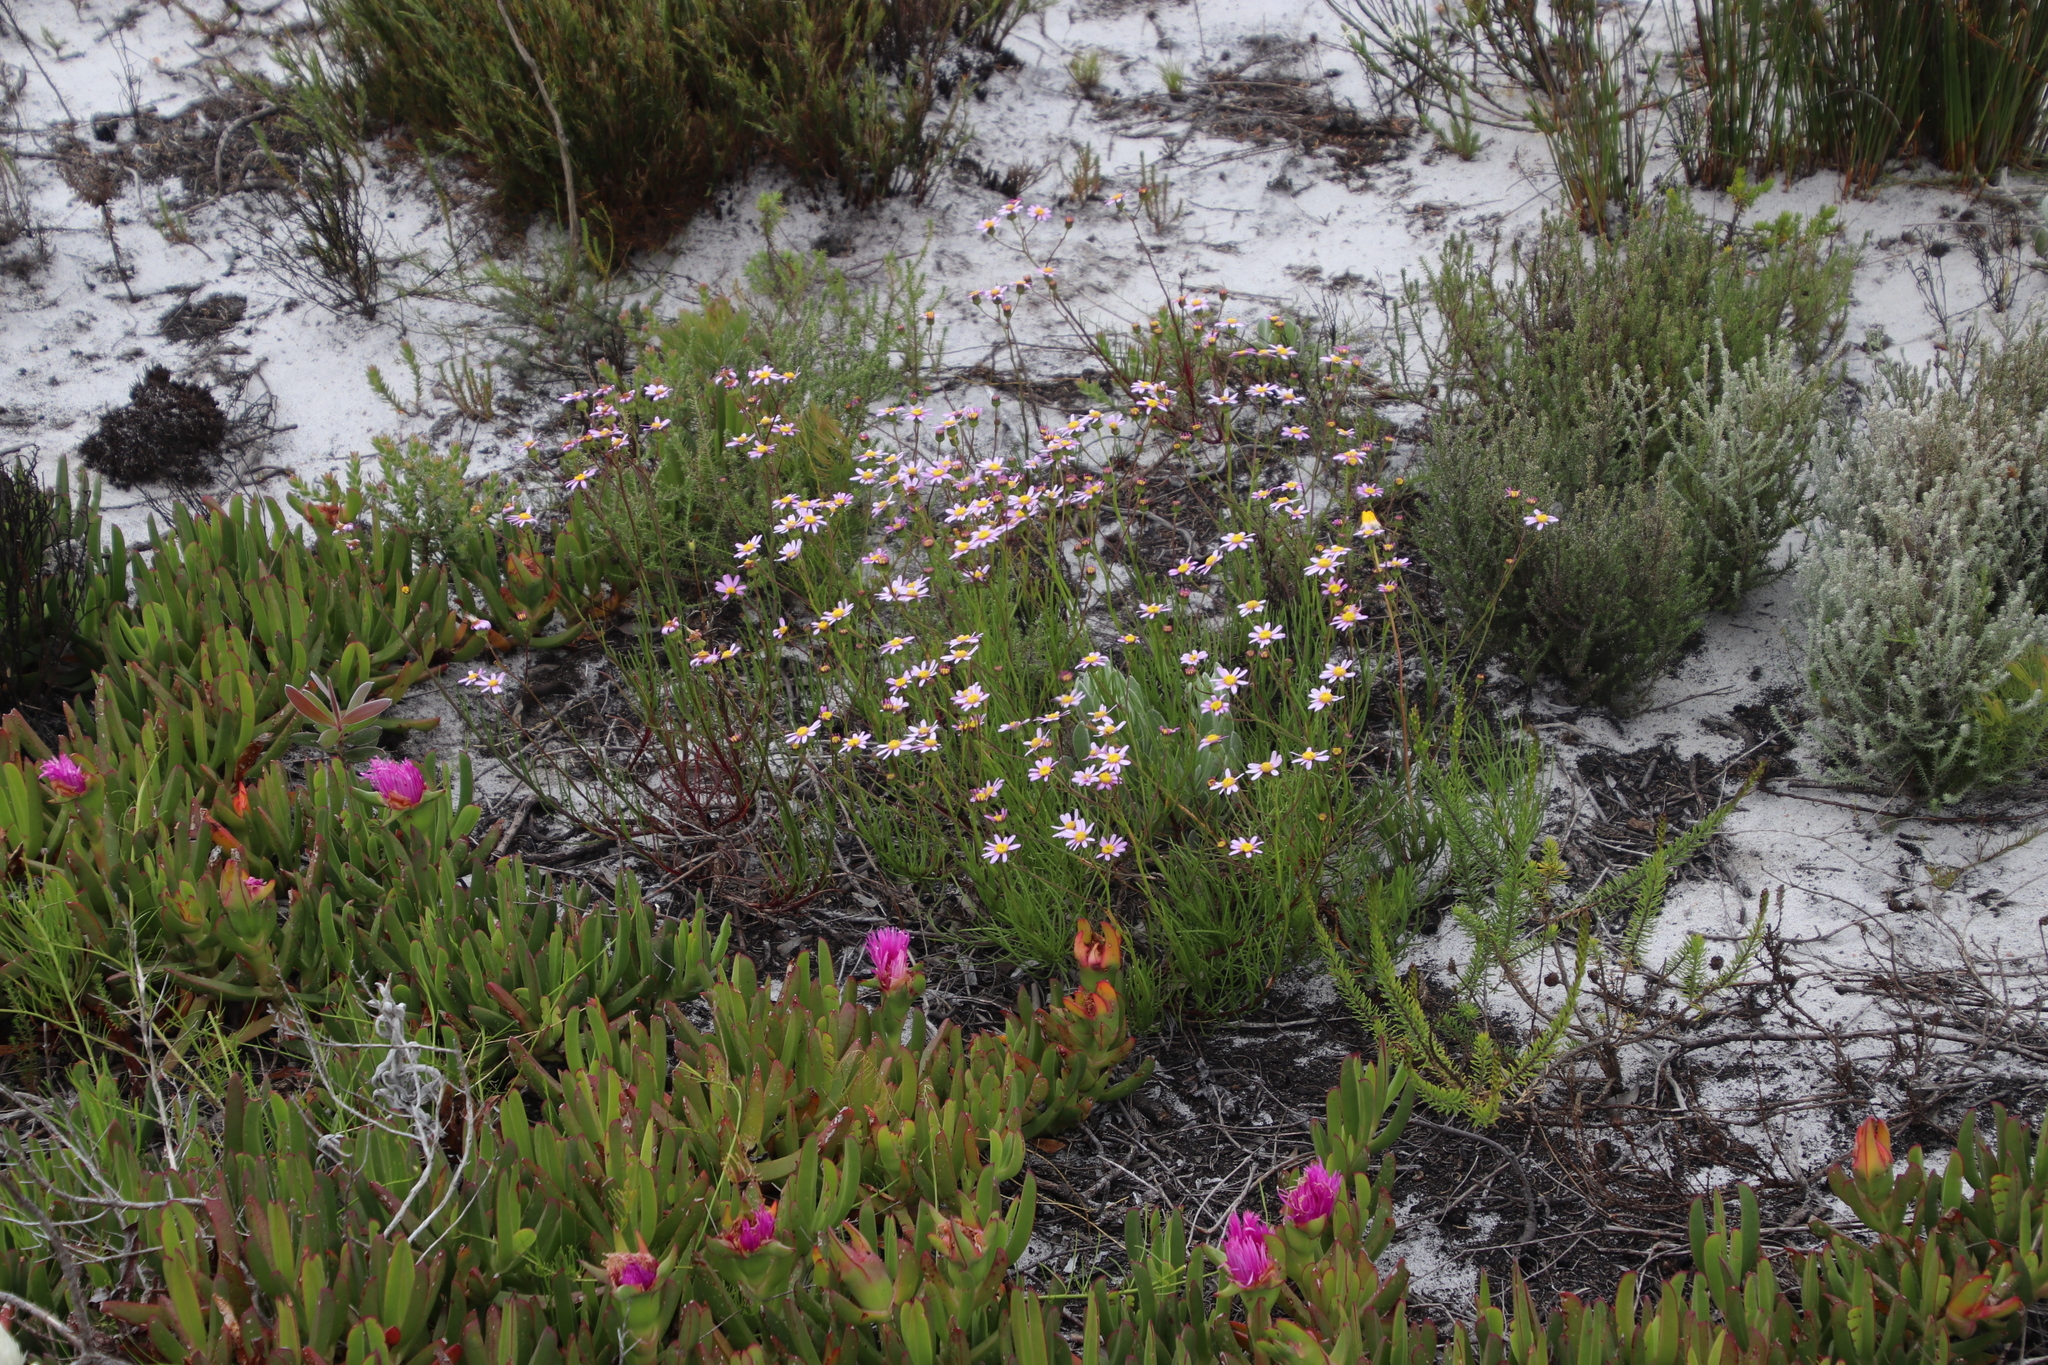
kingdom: Plantae
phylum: Tracheophyta
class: Magnoliopsida
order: Asterales
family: Asteraceae
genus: Senecio
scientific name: Senecio umbellatus
